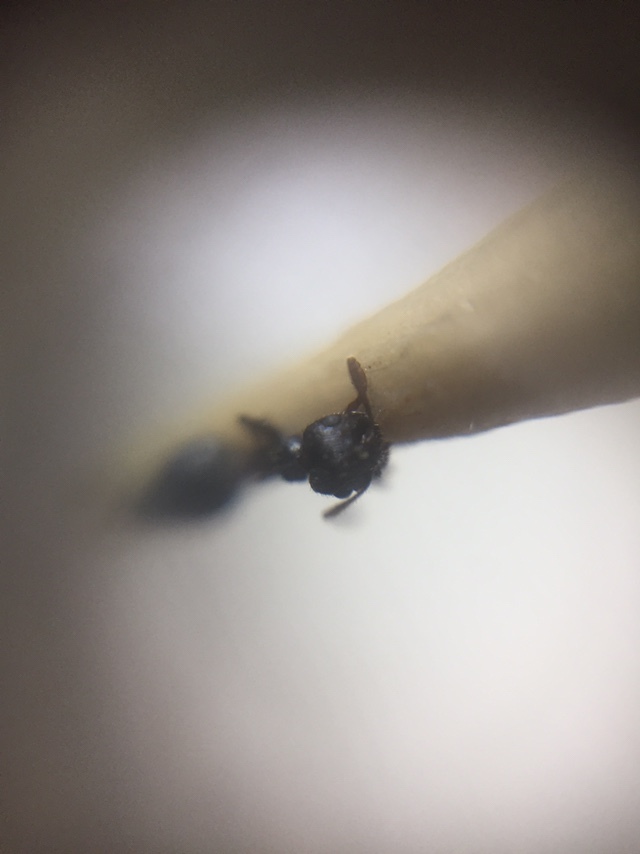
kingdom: Animalia
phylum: Arthropoda
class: Insecta
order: Hymenoptera
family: Formicidae
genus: Crematogaster
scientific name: Crematogaster rothneyi
